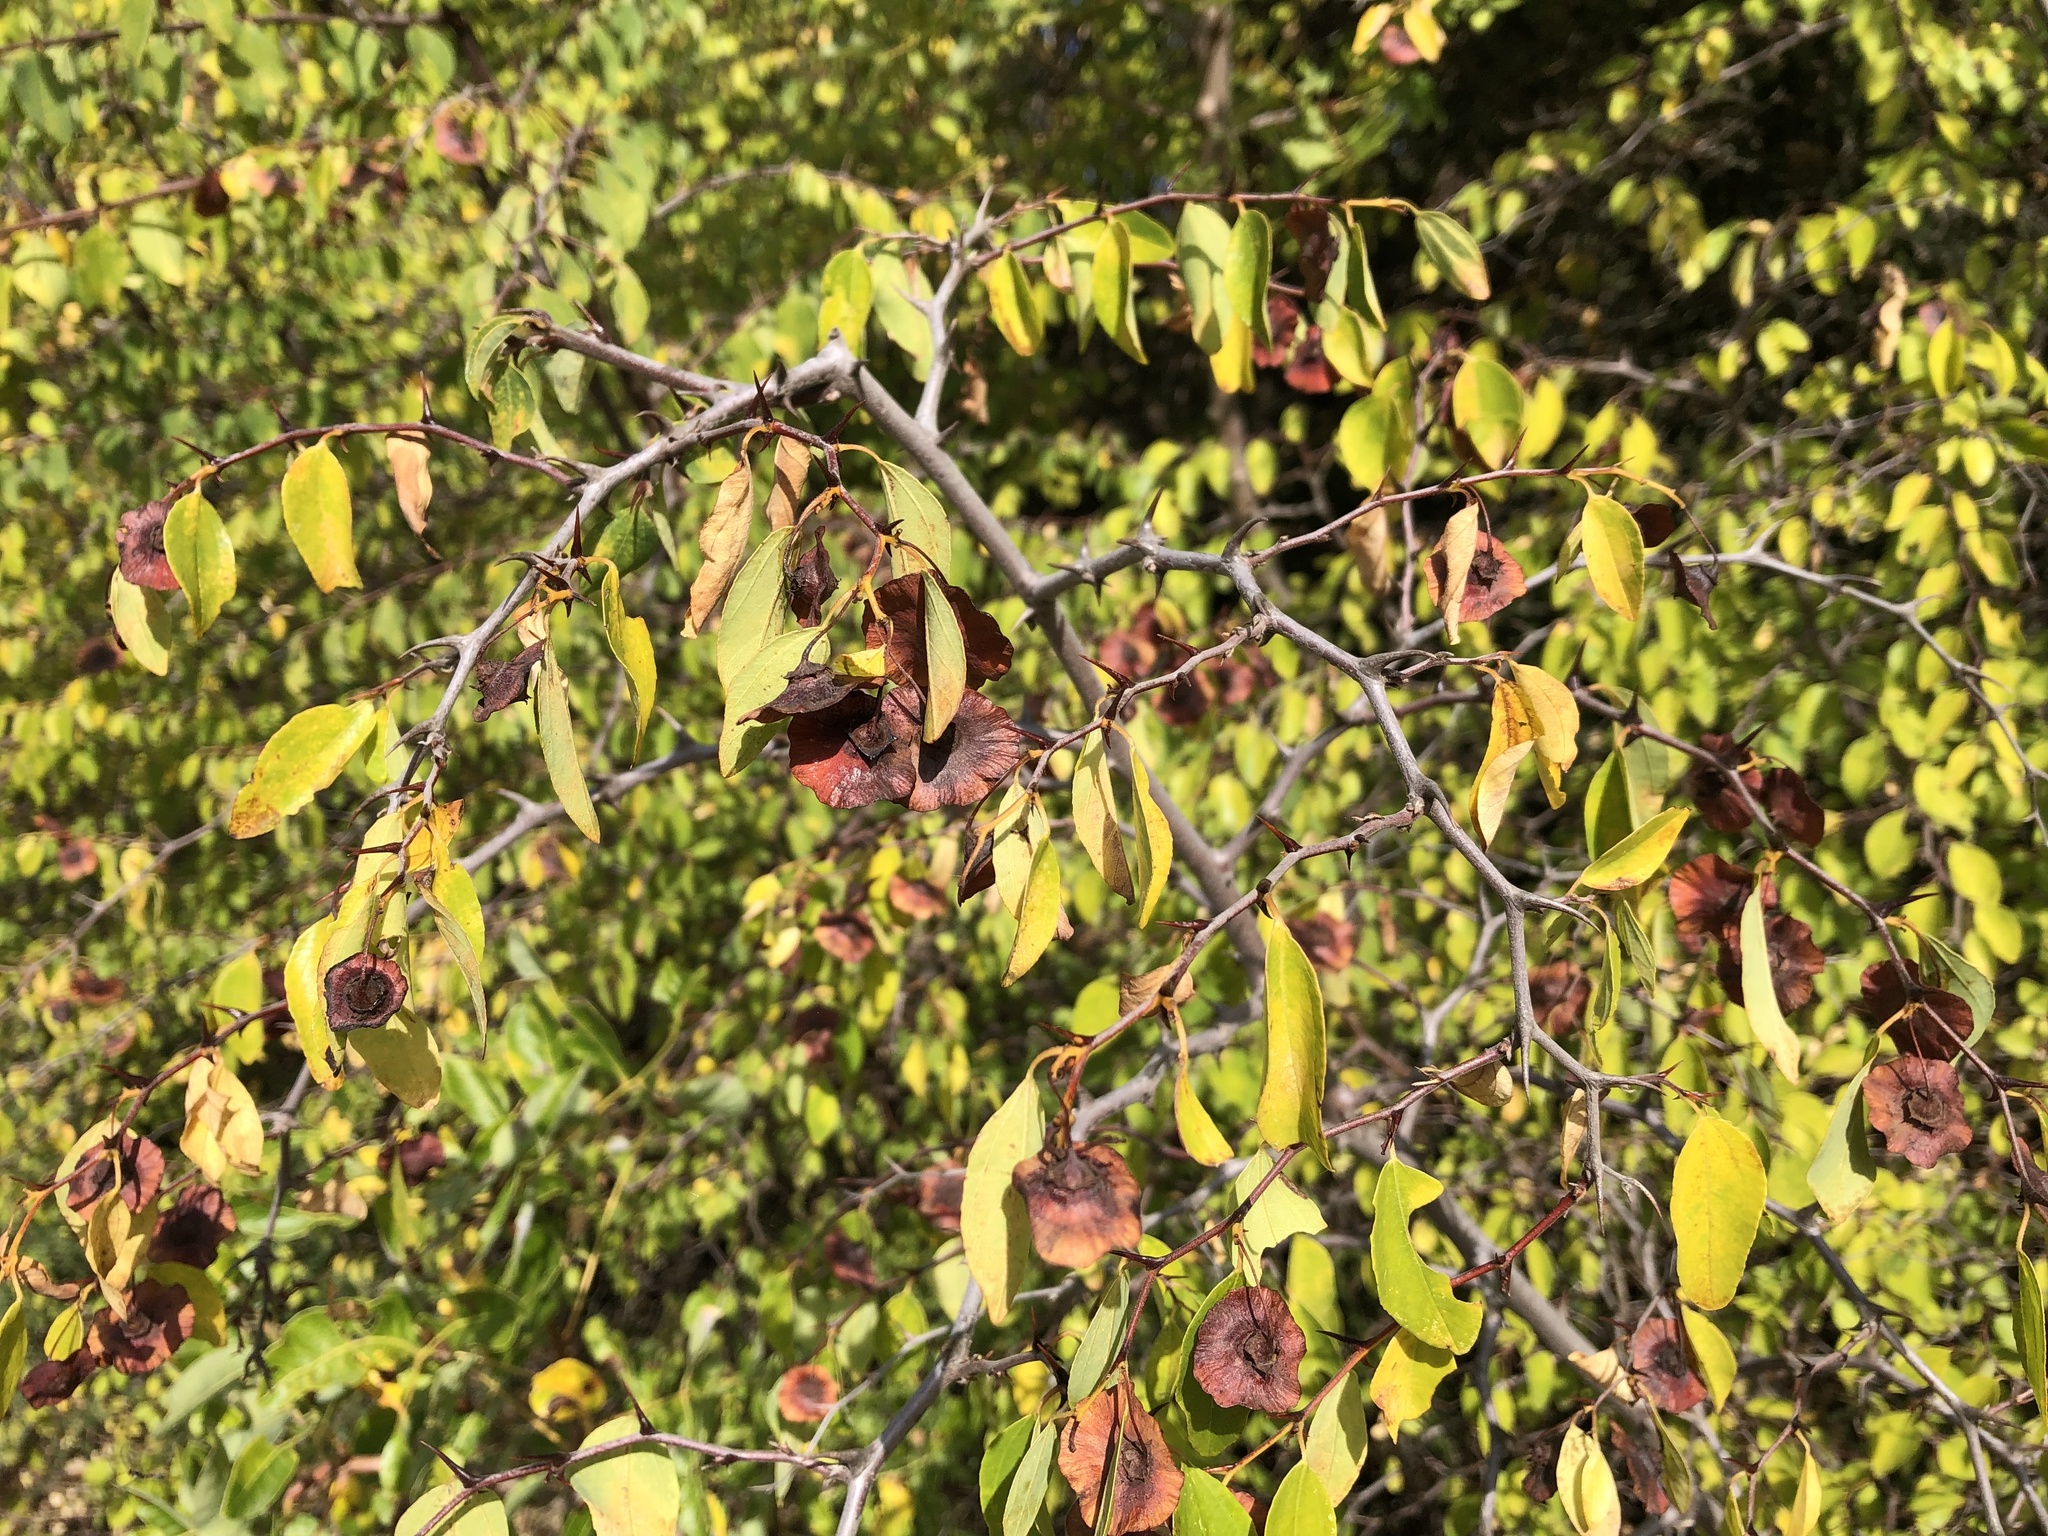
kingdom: Plantae
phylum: Tracheophyta
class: Magnoliopsida
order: Rosales
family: Rhamnaceae
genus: Paliurus
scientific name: Paliurus spina-christi
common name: Jeruselem thorn
